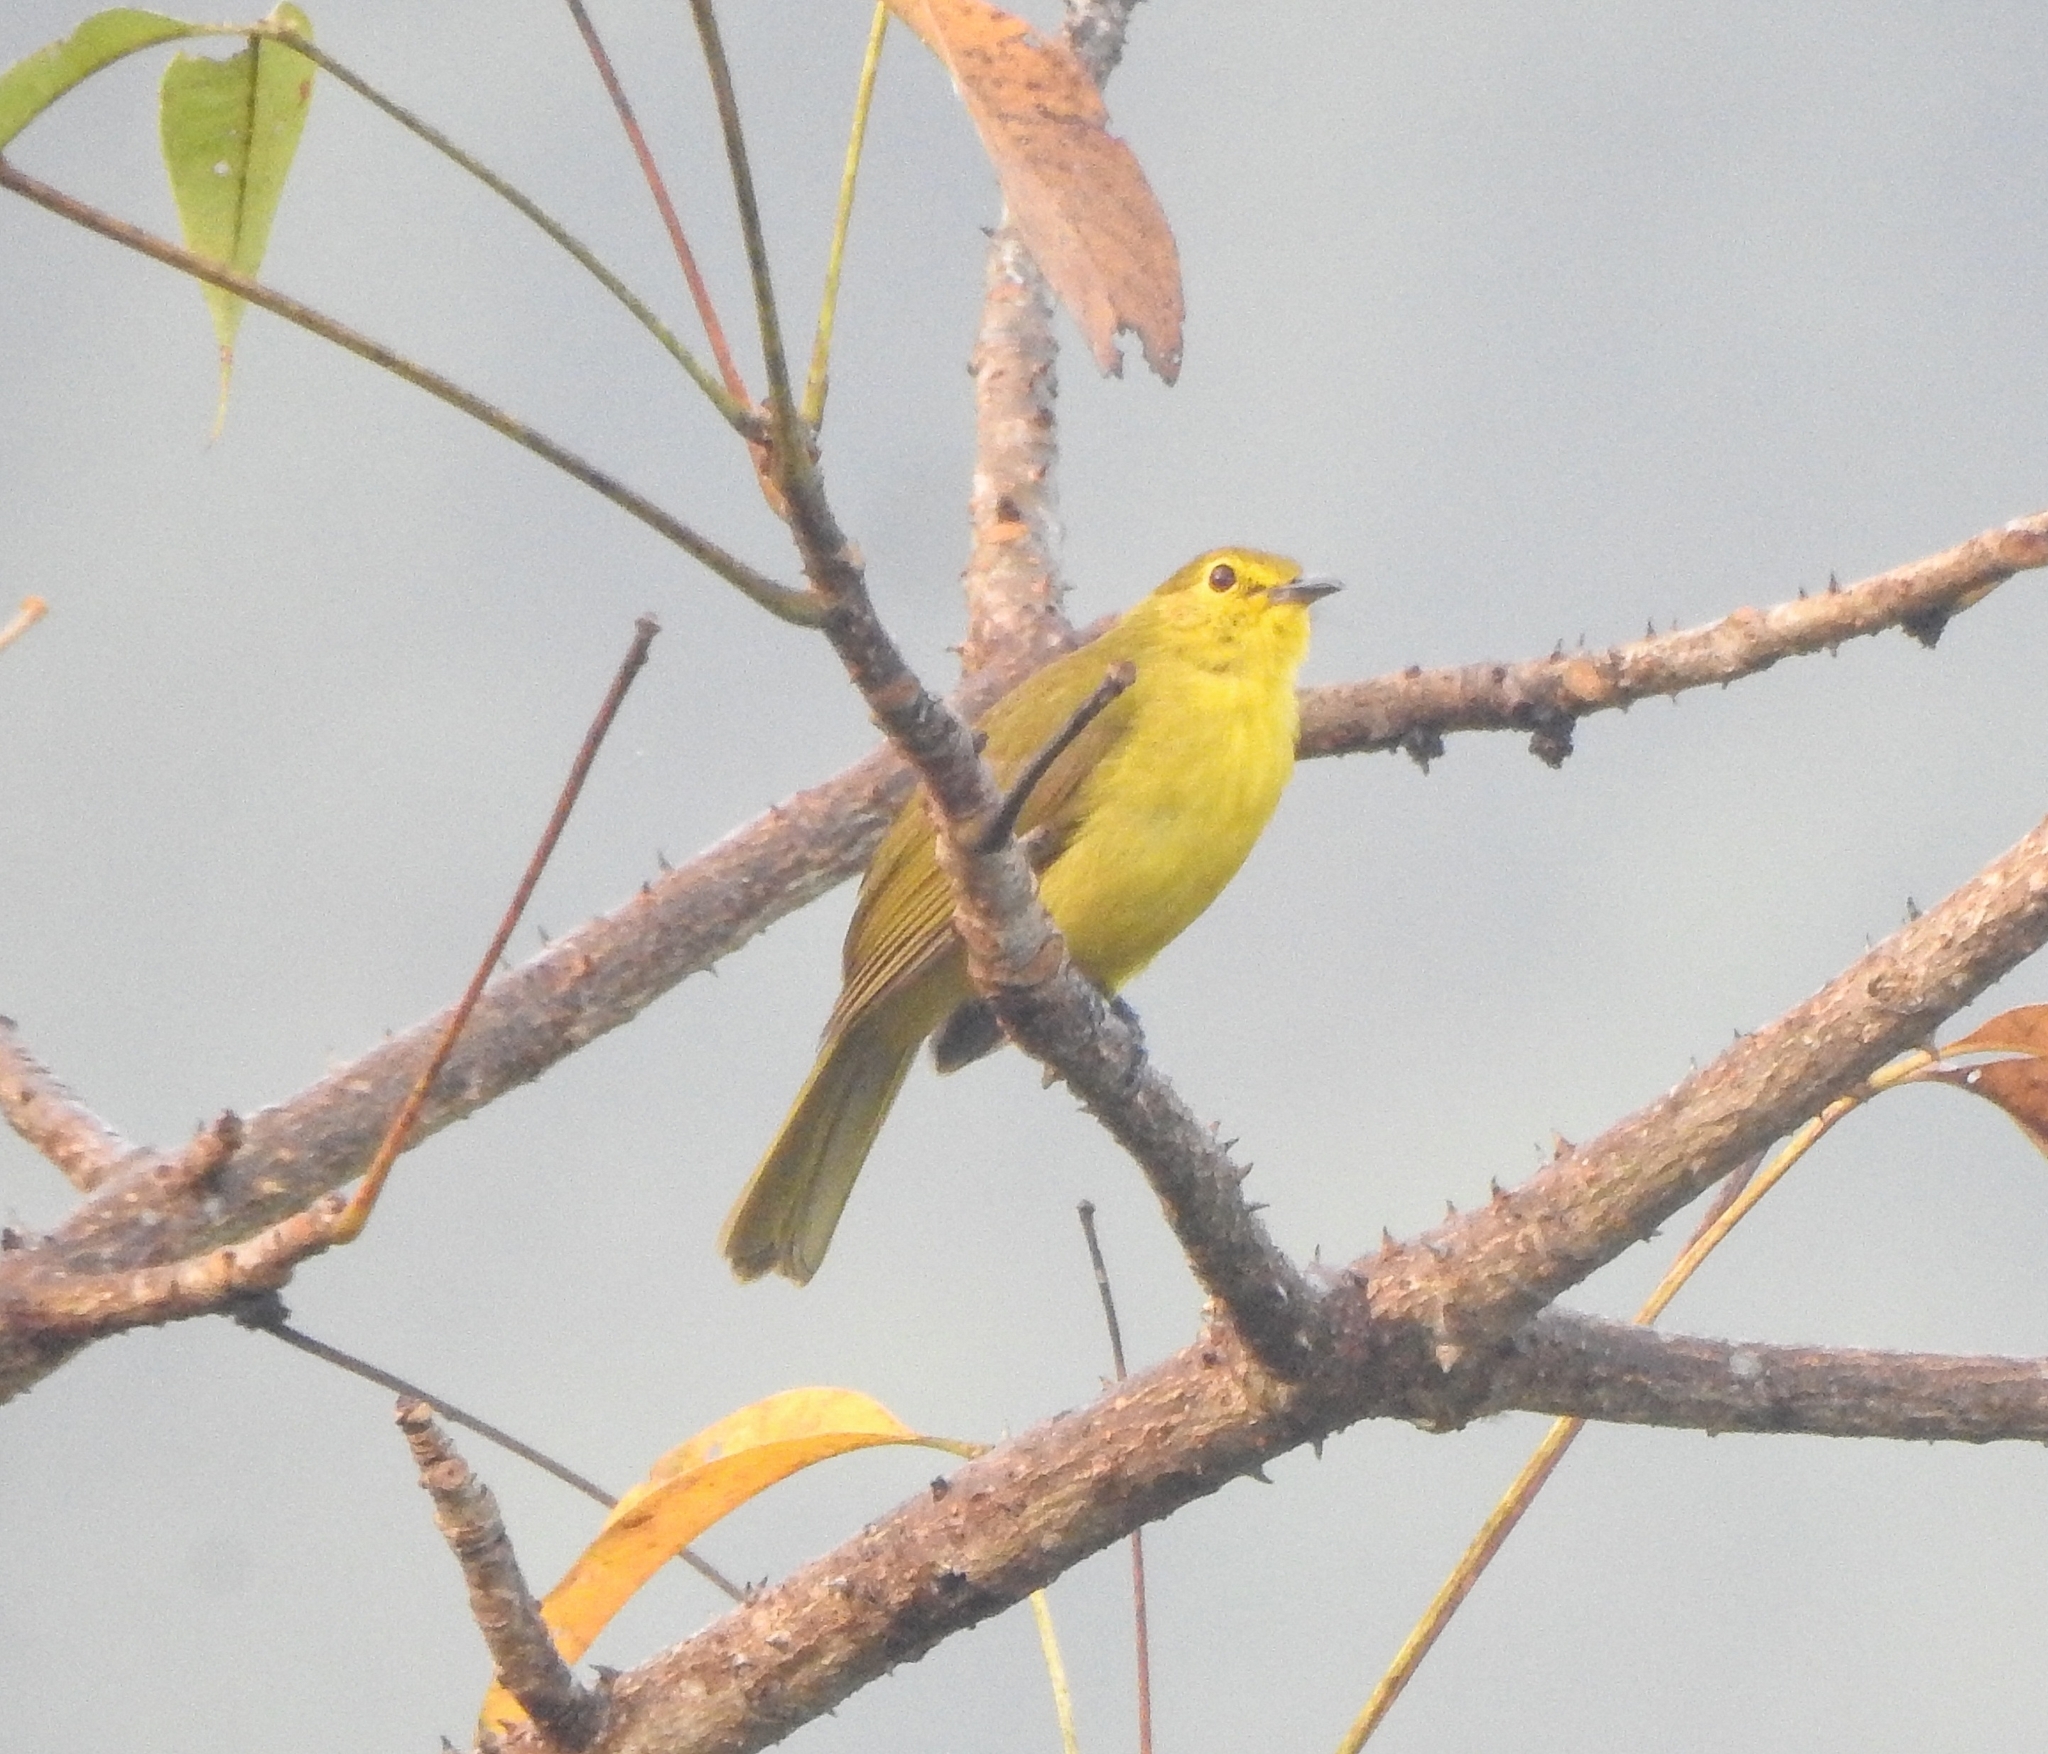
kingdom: Animalia
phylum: Chordata
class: Aves
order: Passeriformes
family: Pycnonotidae
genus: Acritillas
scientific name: Acritillas indica
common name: Yellow-browed bulbul
